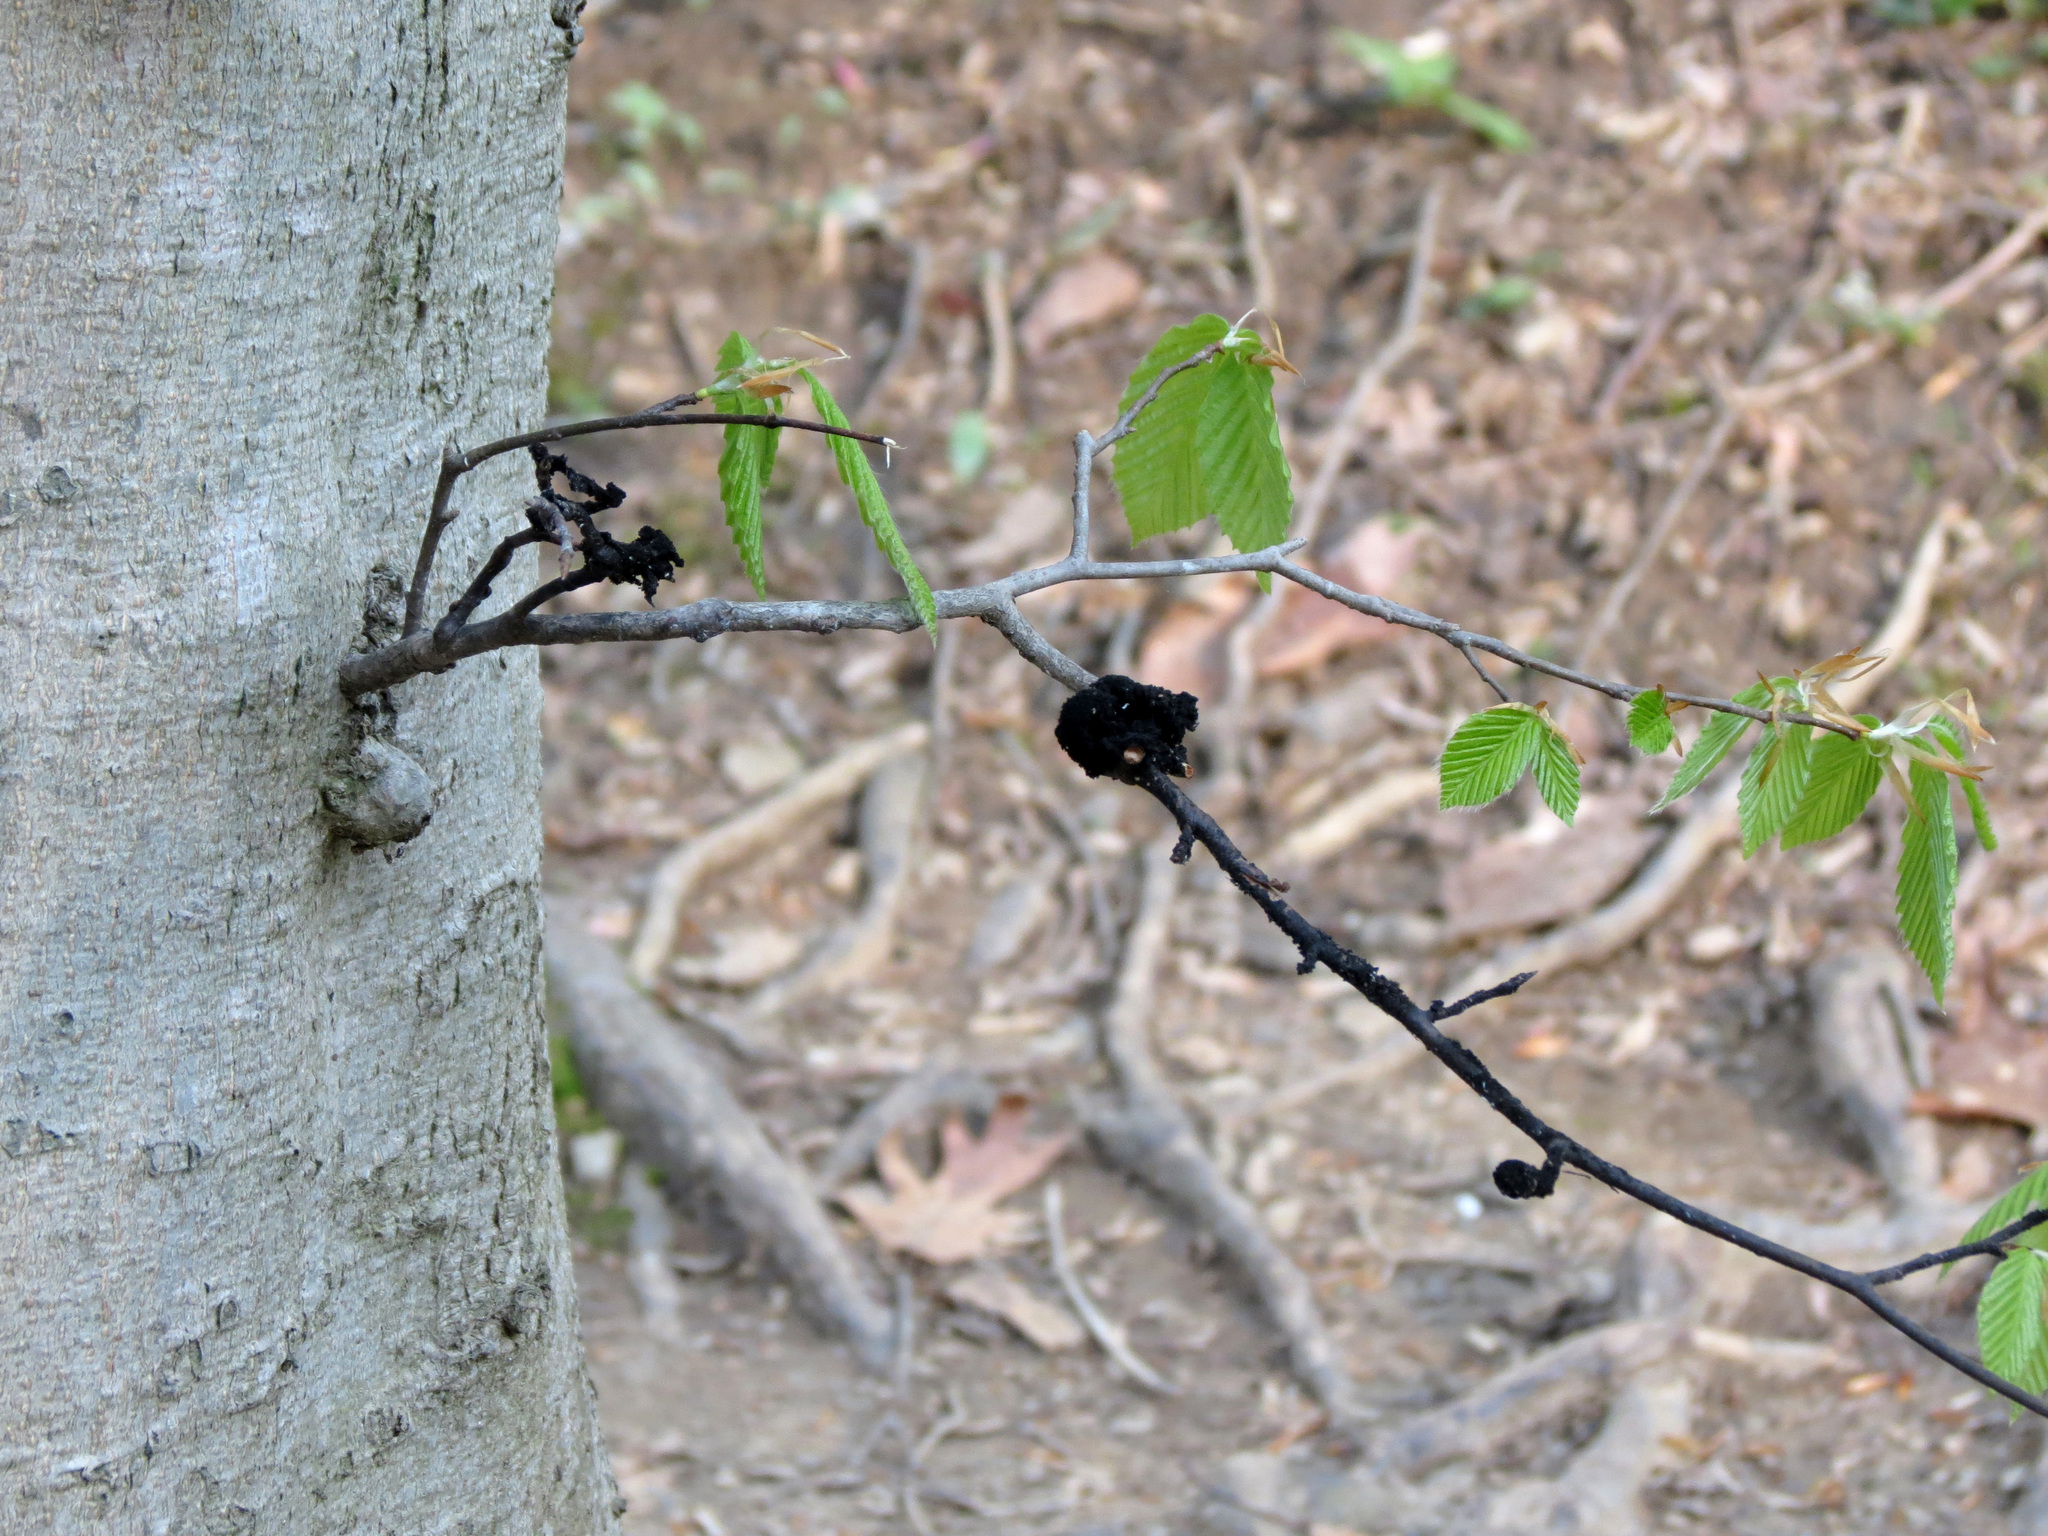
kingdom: Fungi
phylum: Ascomycota
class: Dothideomycetes
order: Capnodiales
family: Capnodiaceae
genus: Scorias
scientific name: Scorias spongiosa
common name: Black sooty mold
